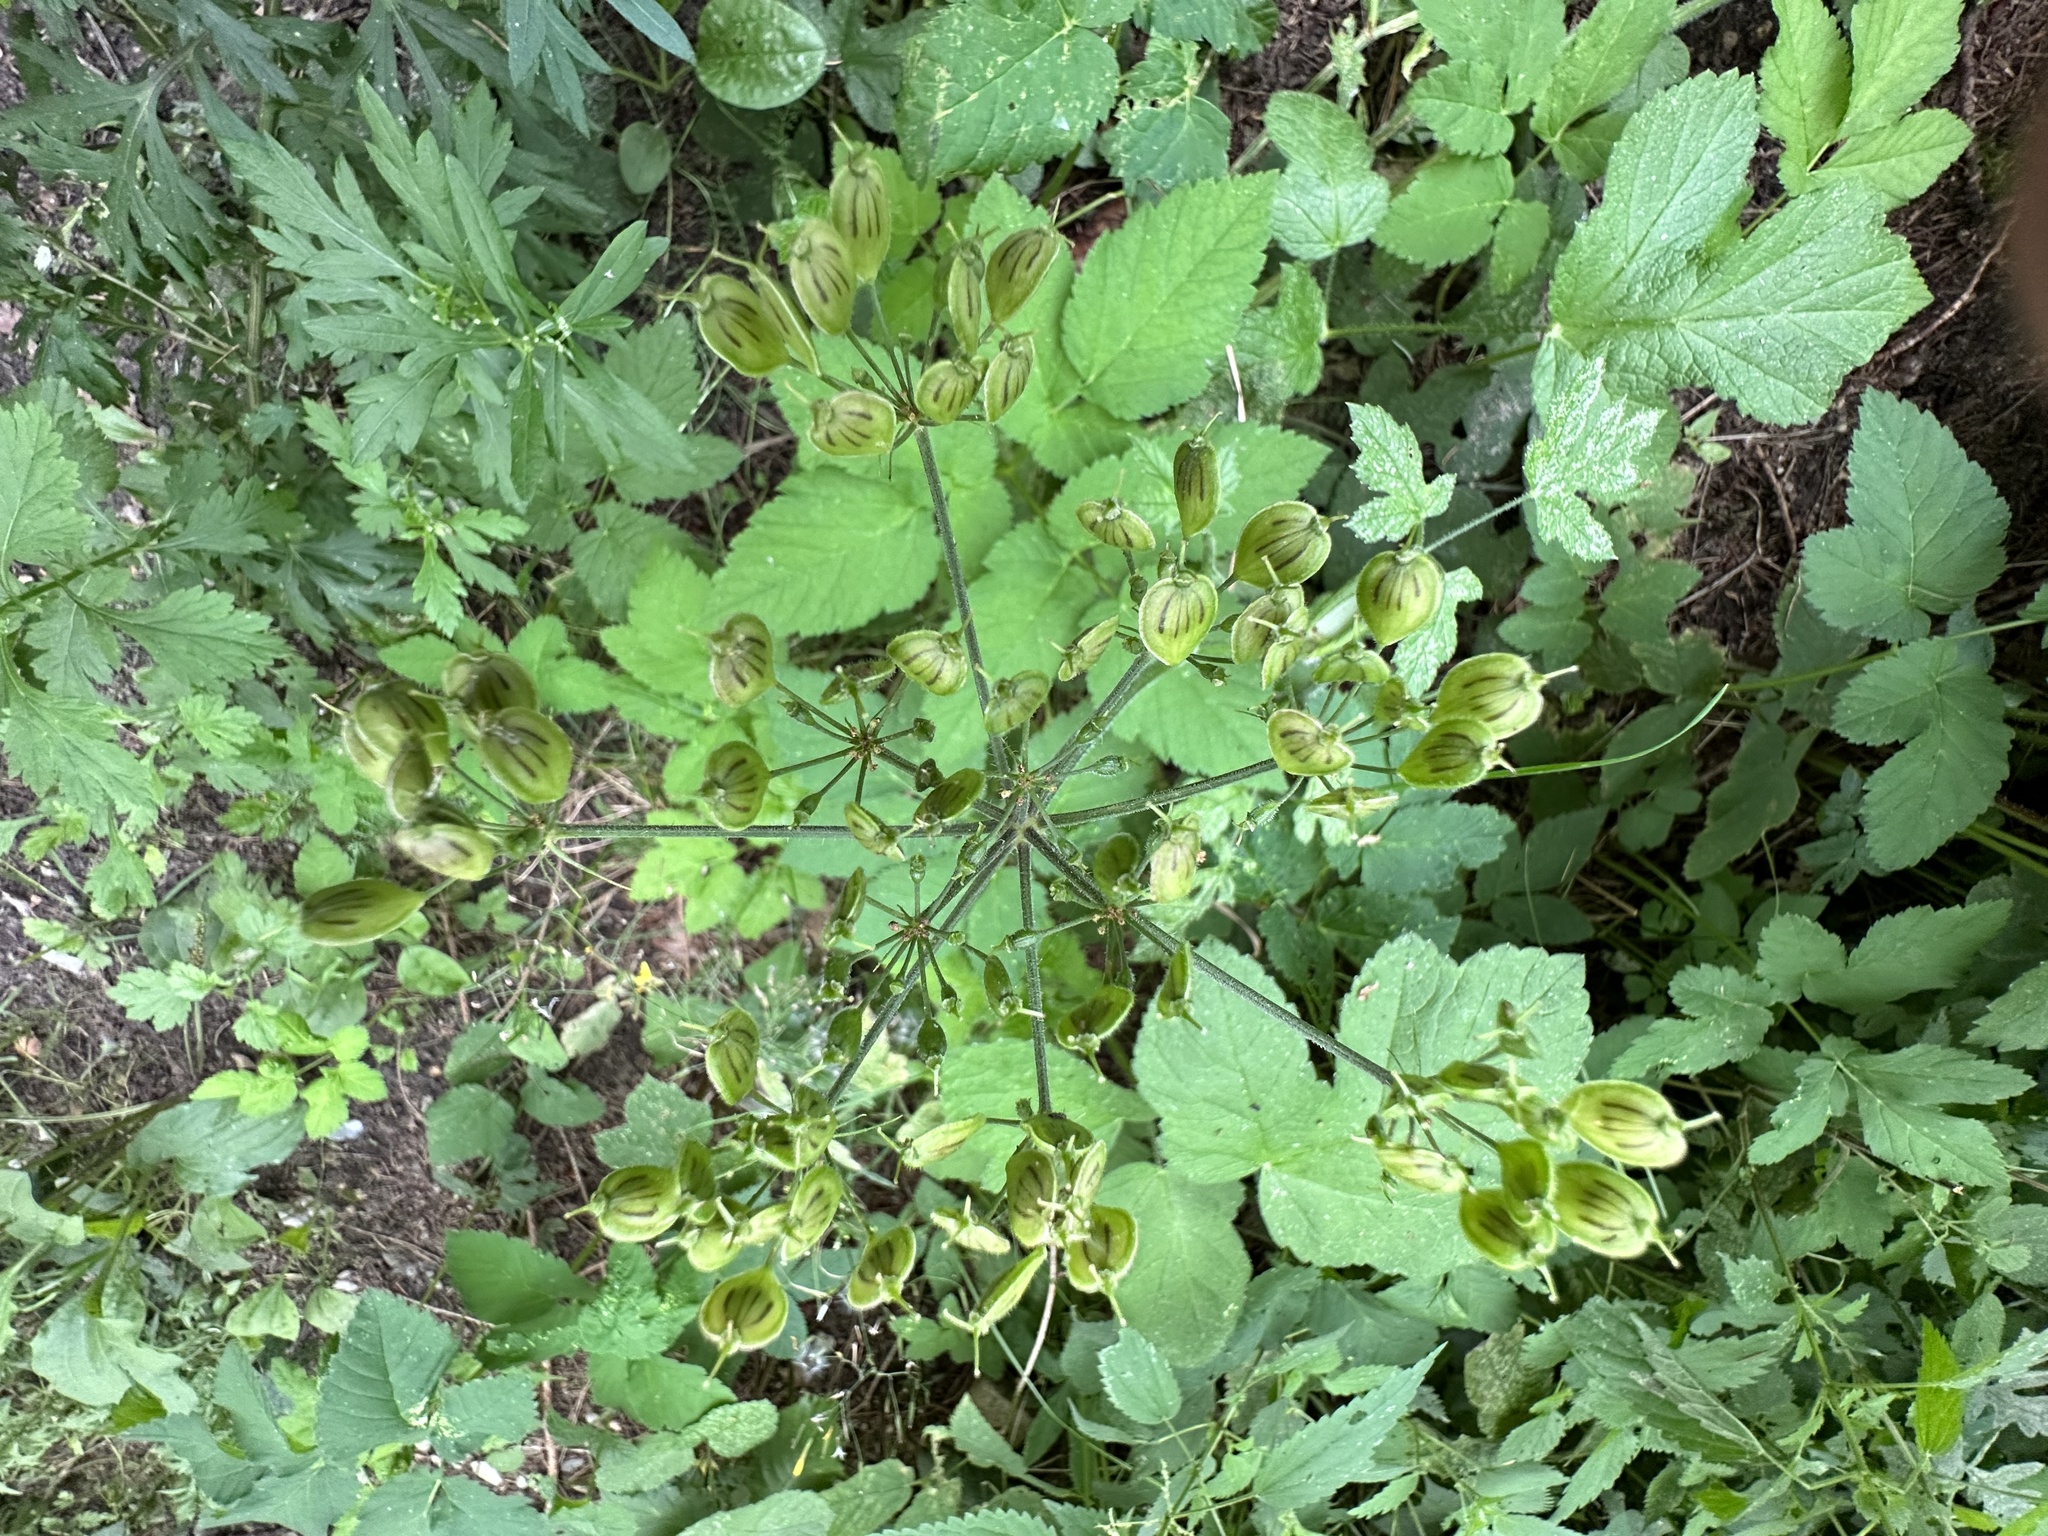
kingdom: Plantae
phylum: Tracheophyta
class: Magnoliopsida
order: Apiales
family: Apiaceae
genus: Heracleum
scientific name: Heracleum sphondylium
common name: Hogweed
